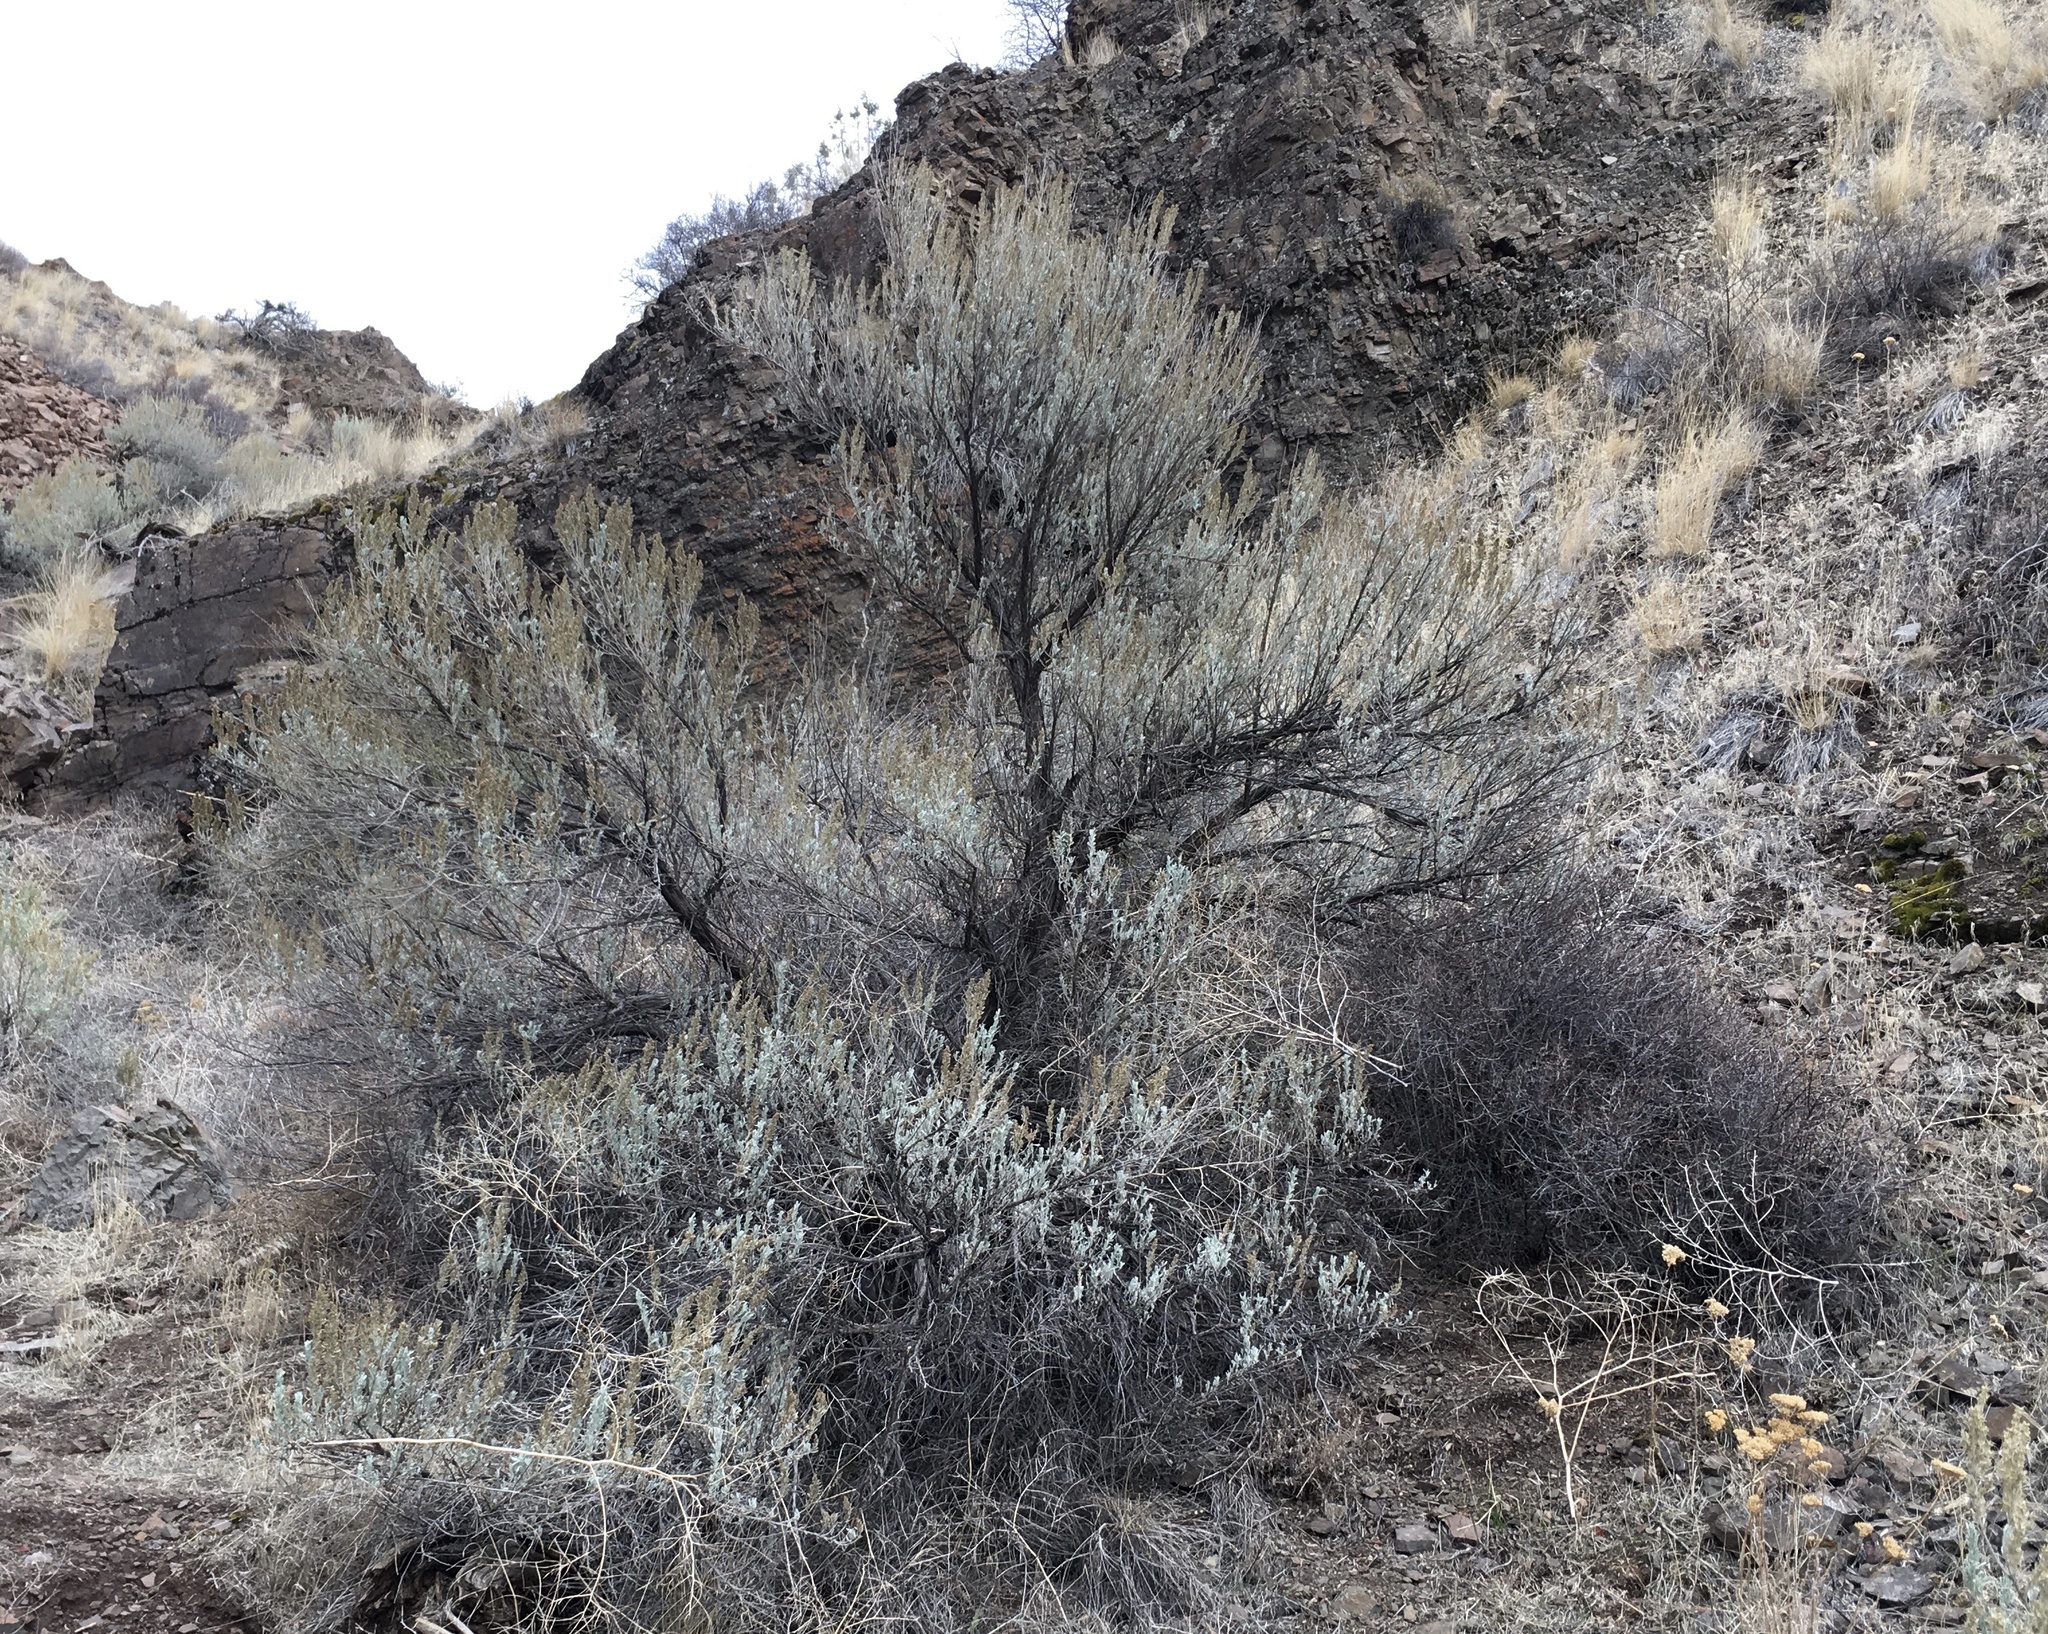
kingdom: Plantae
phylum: Tracheophyta
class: Magnoliopsida
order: Asterales
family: Asteraceae
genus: Artemisia
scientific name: Artemisia tridentata
